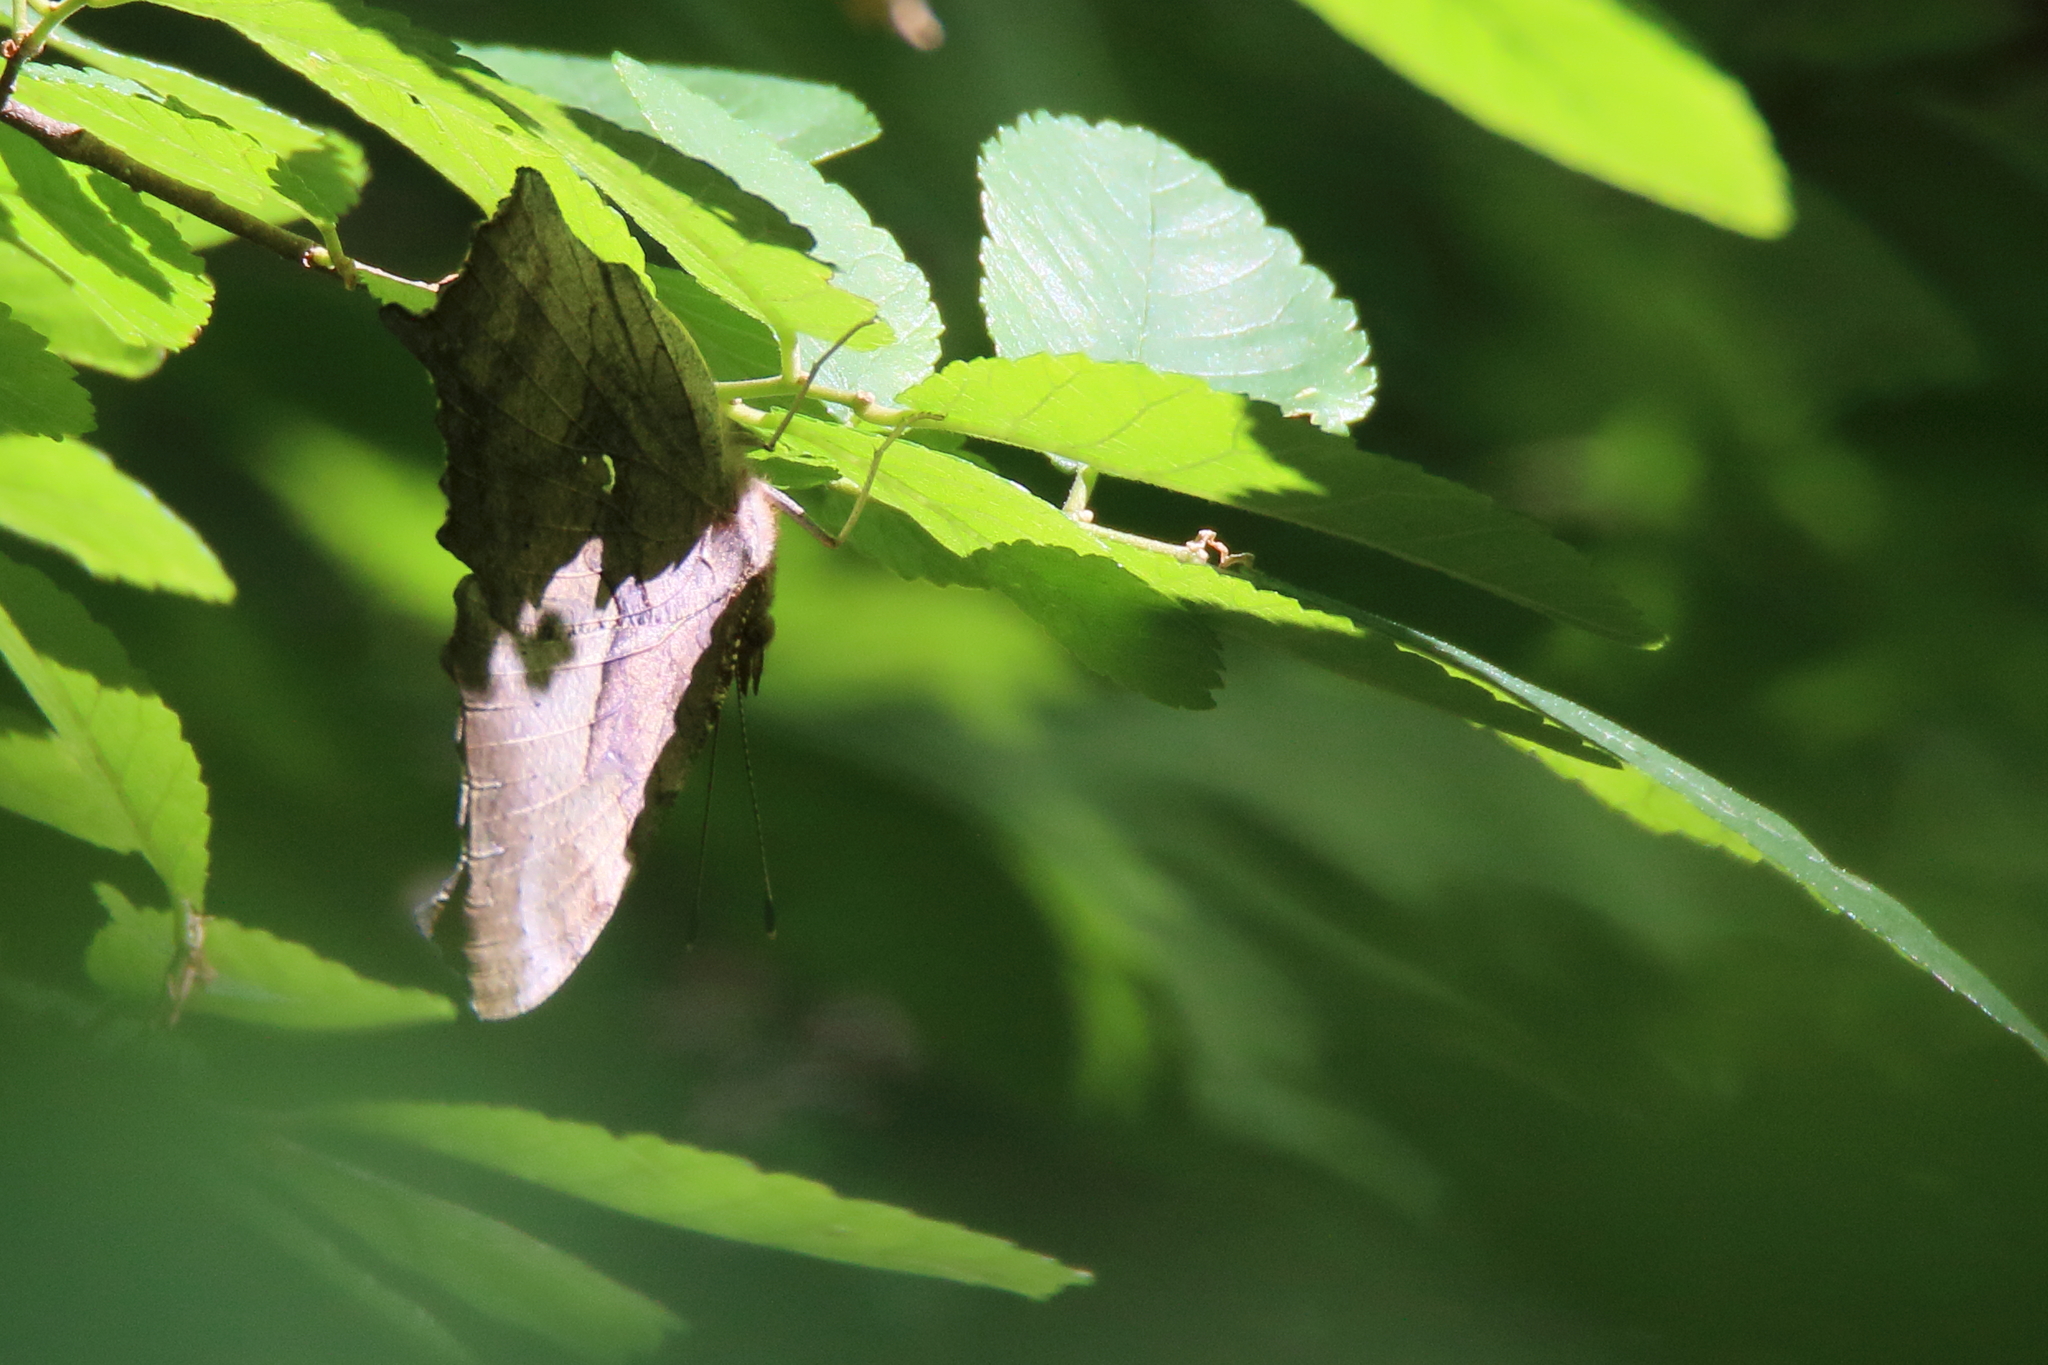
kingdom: Animalia
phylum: Arthropoda
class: Insecta
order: Lepidoptera
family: Nymphalidae
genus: Polygonia
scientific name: Polygonia interrogationis
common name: Question mark
